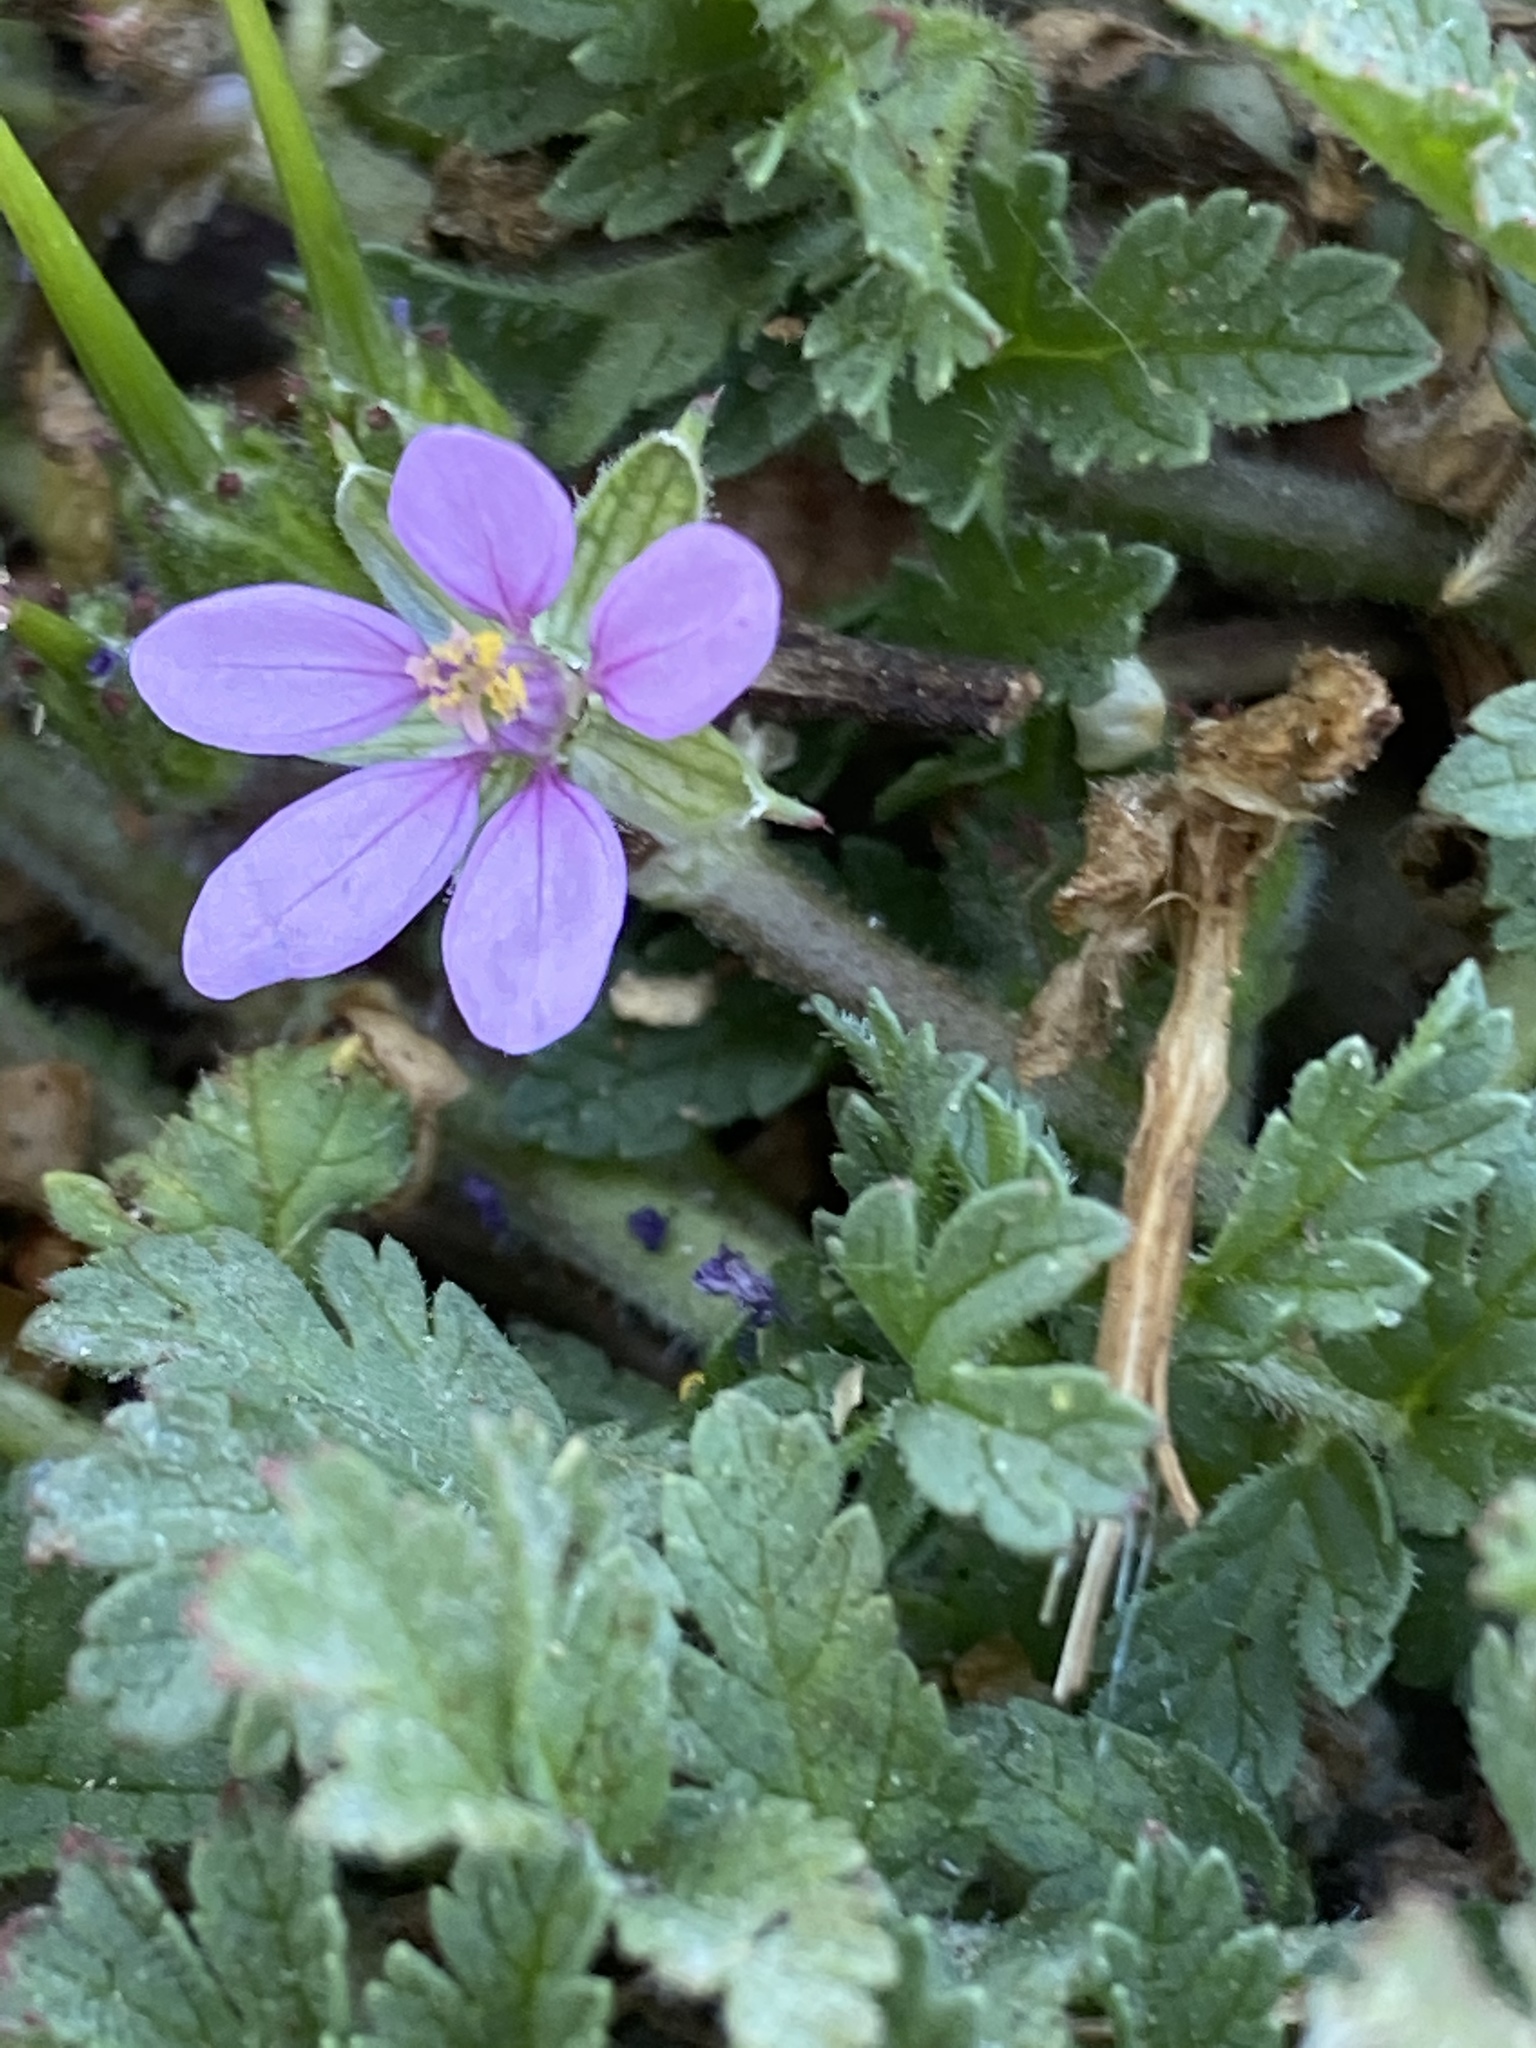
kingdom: Plantae
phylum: Tracheophyta
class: Magnoliopsida
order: Geraniales
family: Geraniaceae
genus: Erodium
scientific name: Erodium moschatum
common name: Musk stork's-bill
